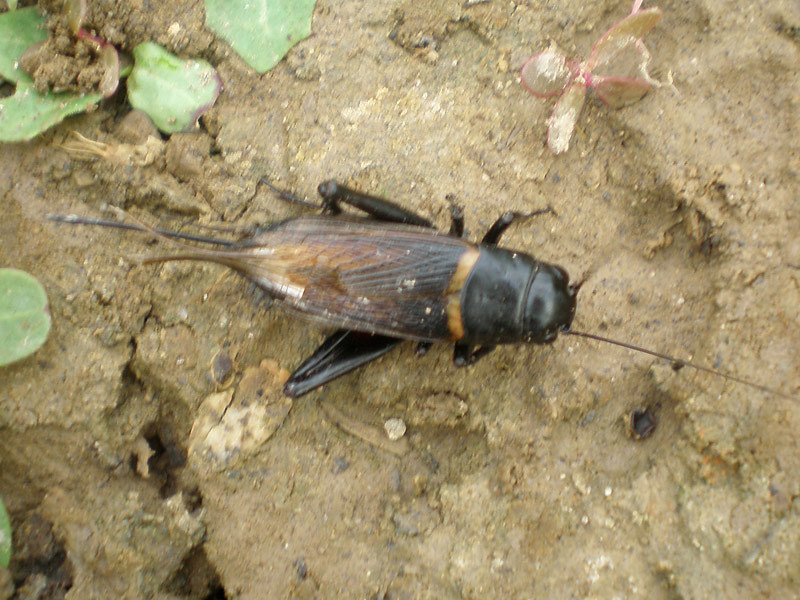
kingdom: Animalia
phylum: Arthropoda
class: Insecta
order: Orthoptera
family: Gryllidae
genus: Gryllus
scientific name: Gryllus bimaculatus
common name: Two-spotted cricket
